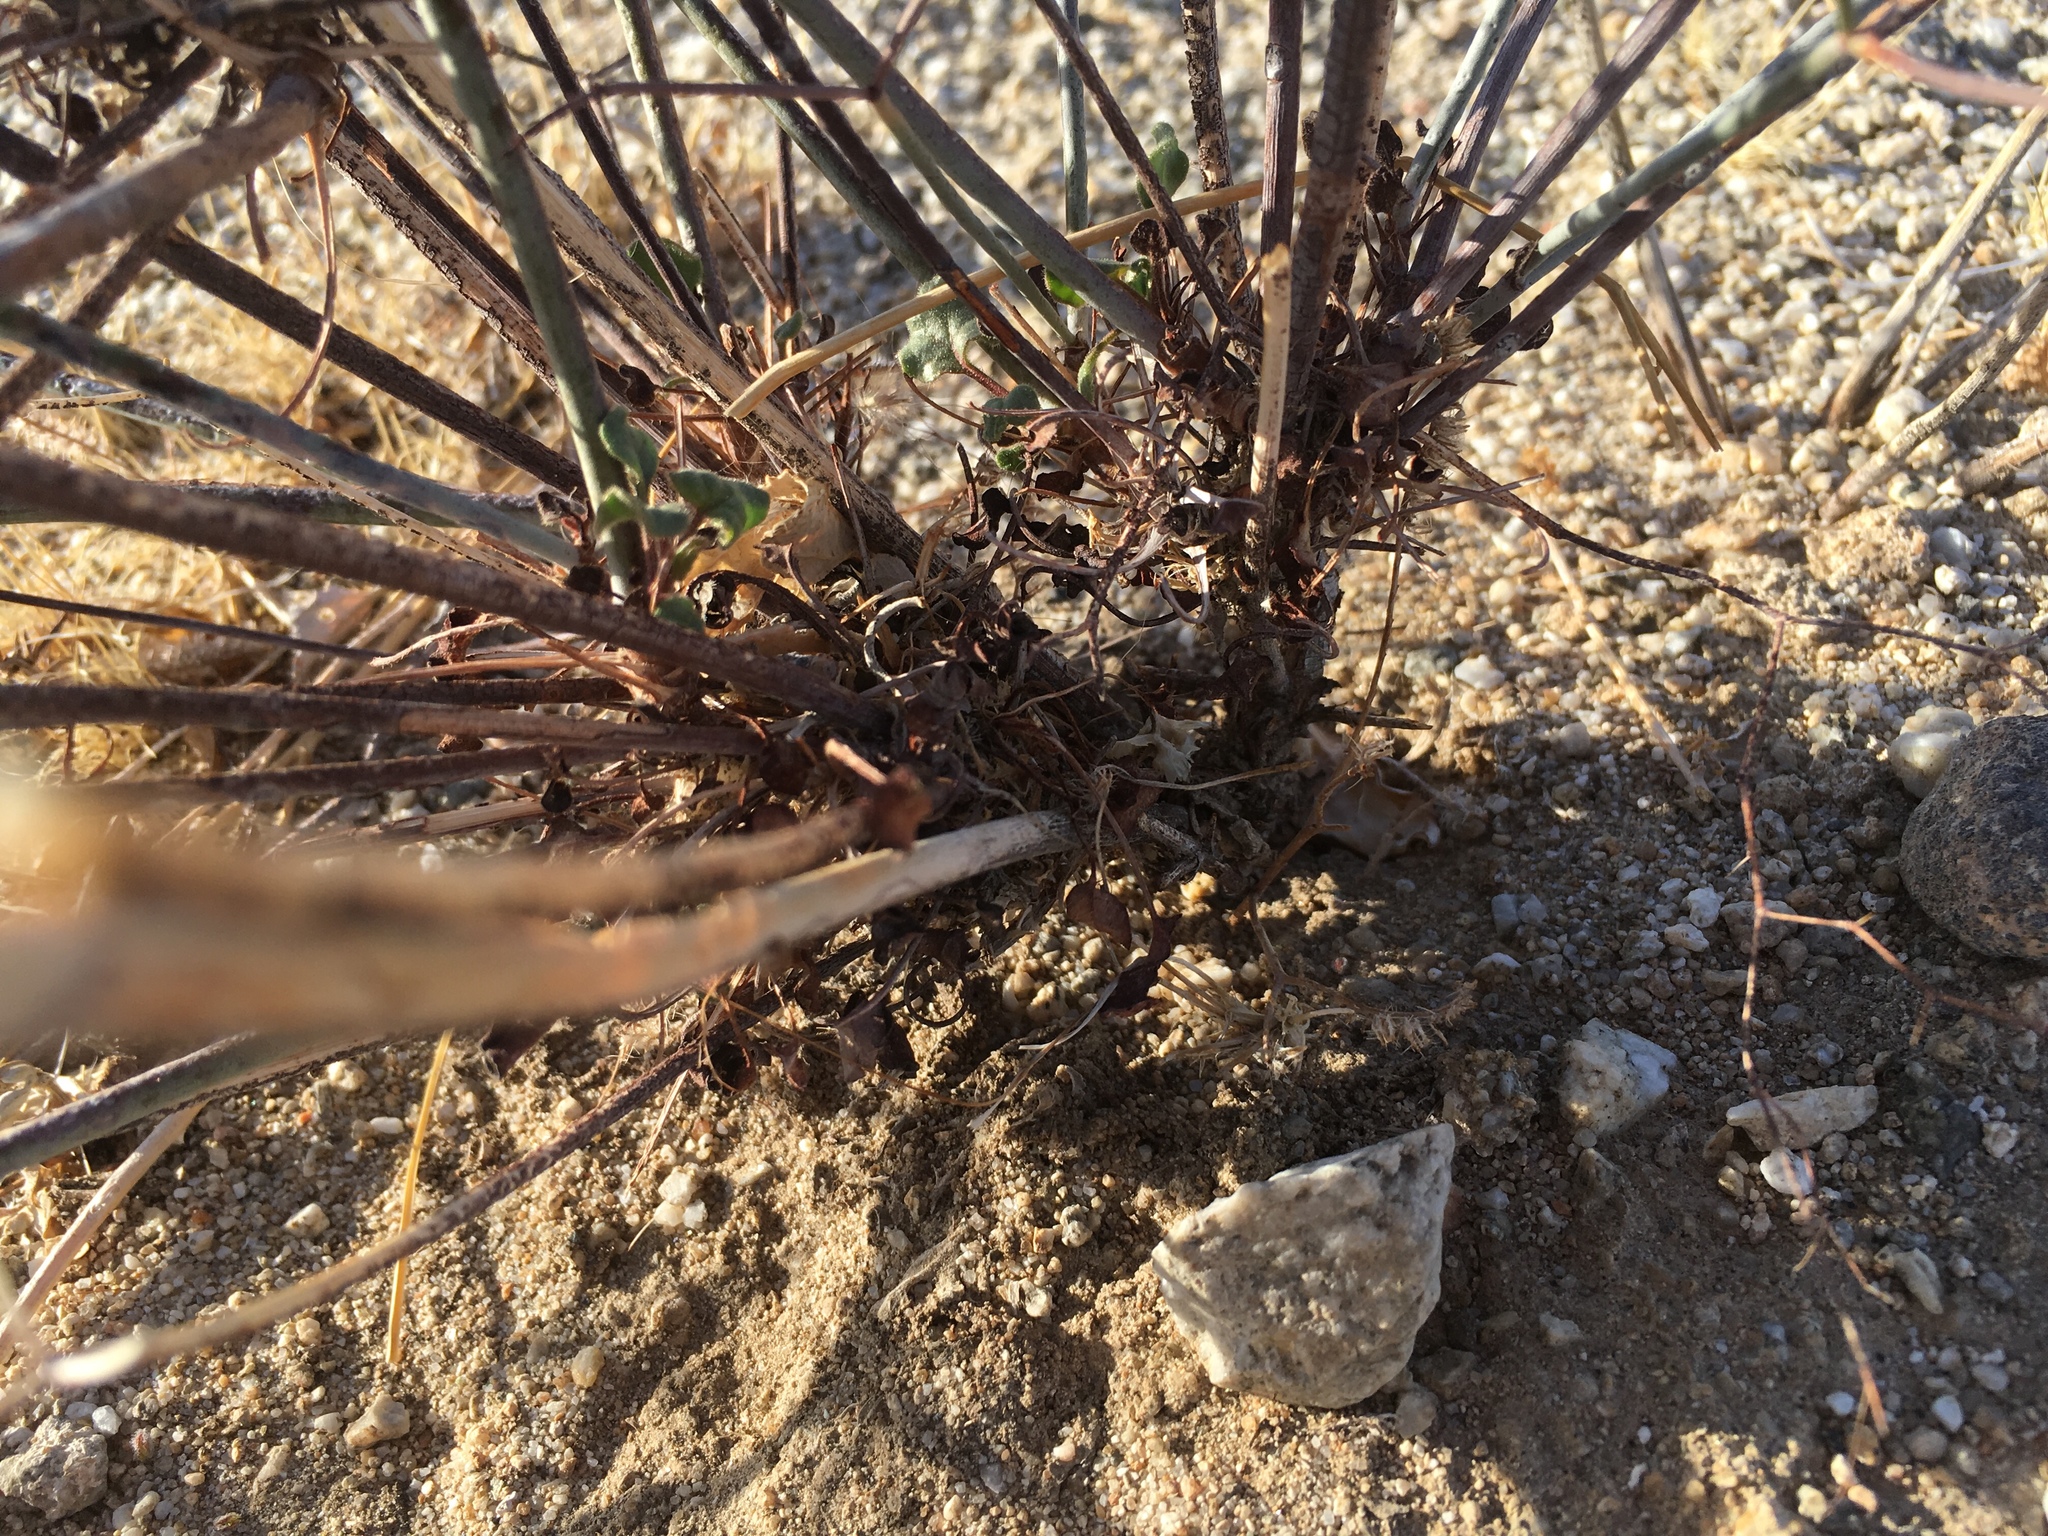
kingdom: Plantae
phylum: Tracheophyta
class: Magnoliopsida
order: Caryophyllales
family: Polygonaceae
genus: Eriogonum
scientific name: Eriogonum inflatum
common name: Desert trumpet
